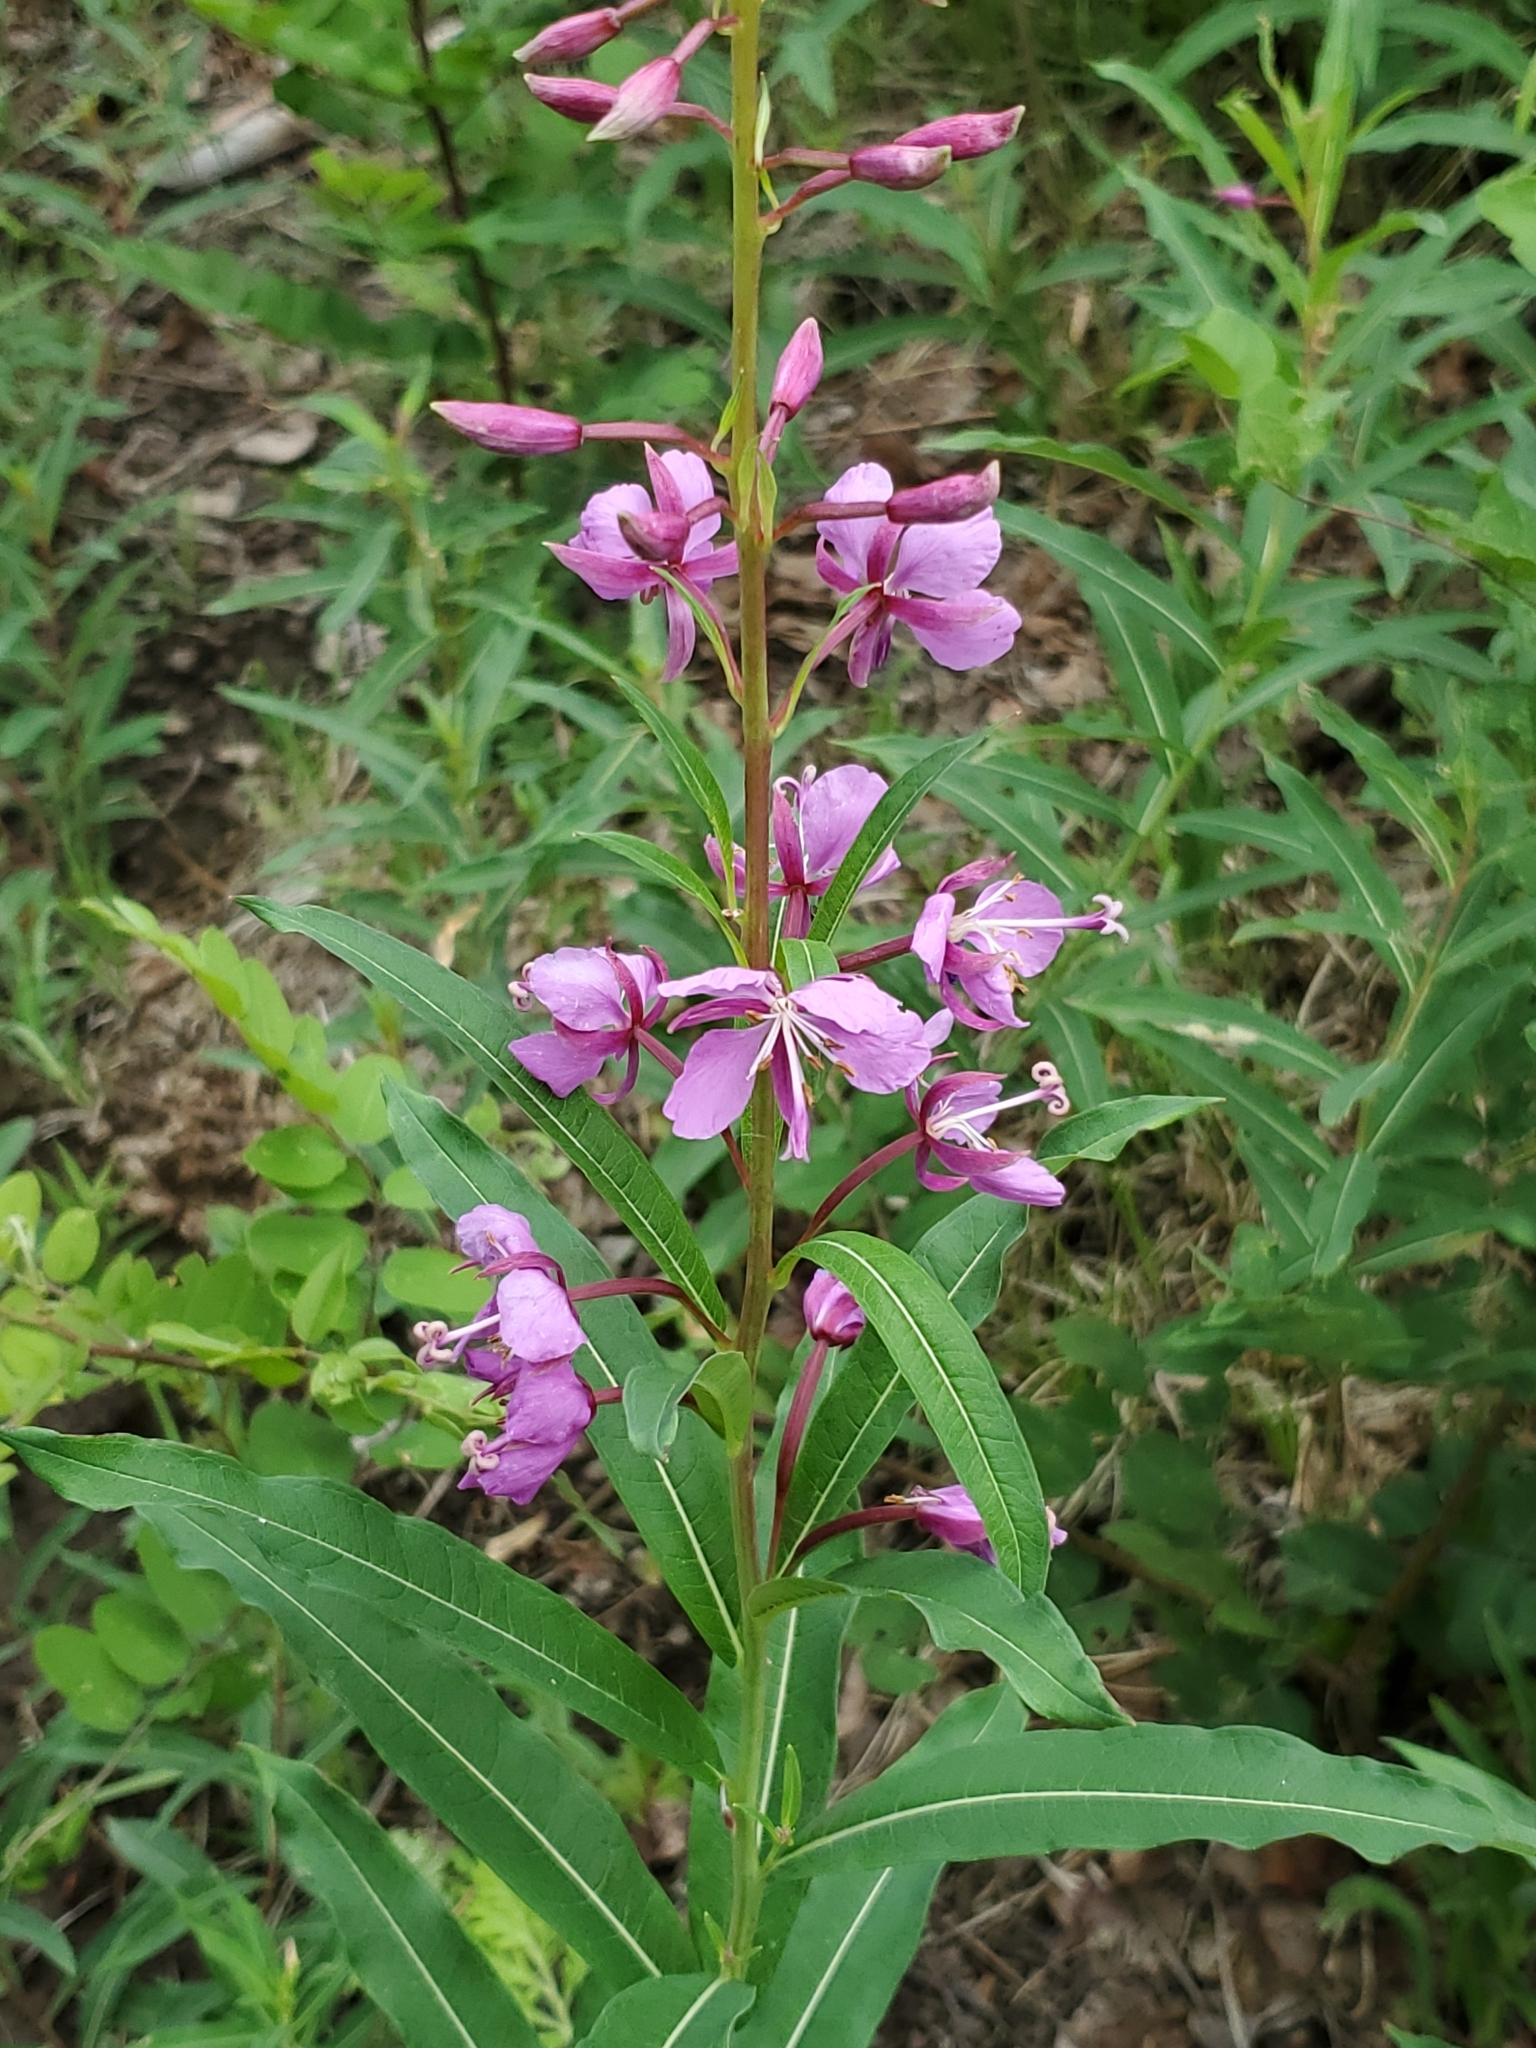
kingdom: Plantae
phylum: Tracheophyta
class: Magnoliopsida
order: Myrtales
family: Onagraceae
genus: Chamaenerion
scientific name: Chamaenerion angustifolium
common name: Fireweed
